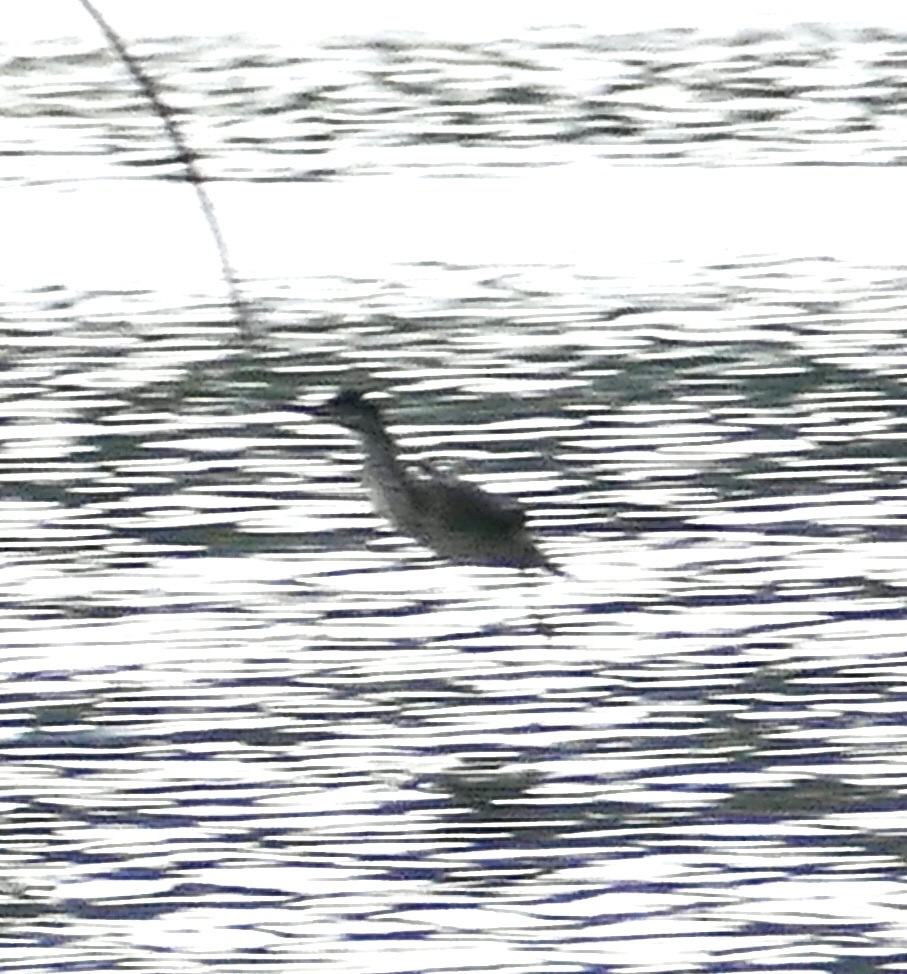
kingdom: Animalia
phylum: Chordata
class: Aves
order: Pelecaniformes
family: Ardeidae
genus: Butorides
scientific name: Butorides striata
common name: Striated heron
